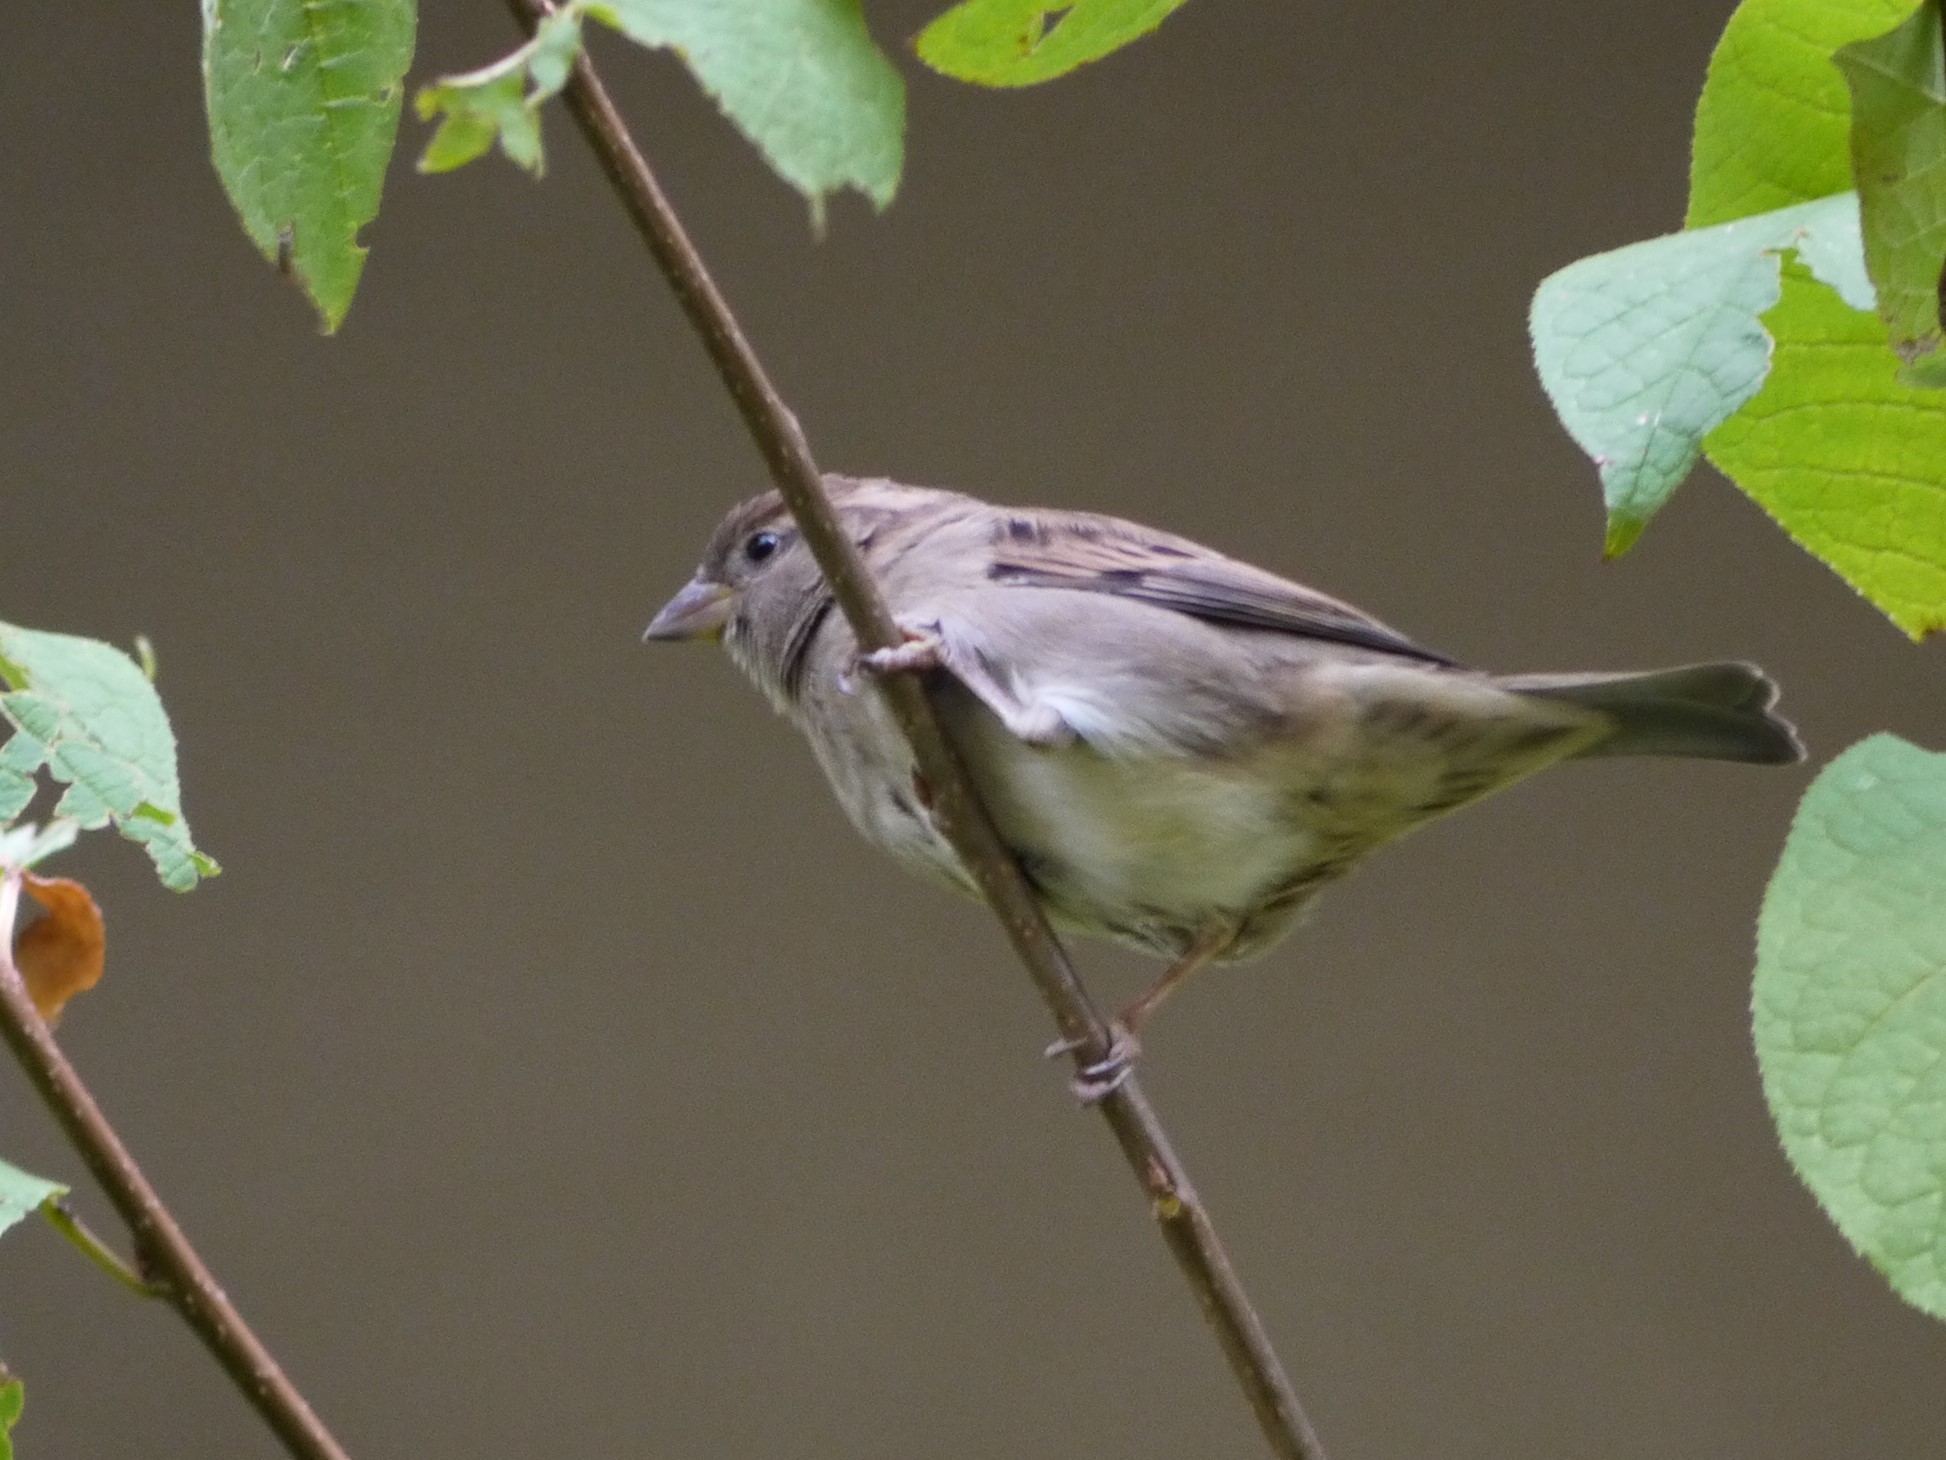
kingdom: Animalia
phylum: Chordata
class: Aves
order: Passeriformes
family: Passeridae
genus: Passer
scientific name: Passer domesticus
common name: House sparrow
